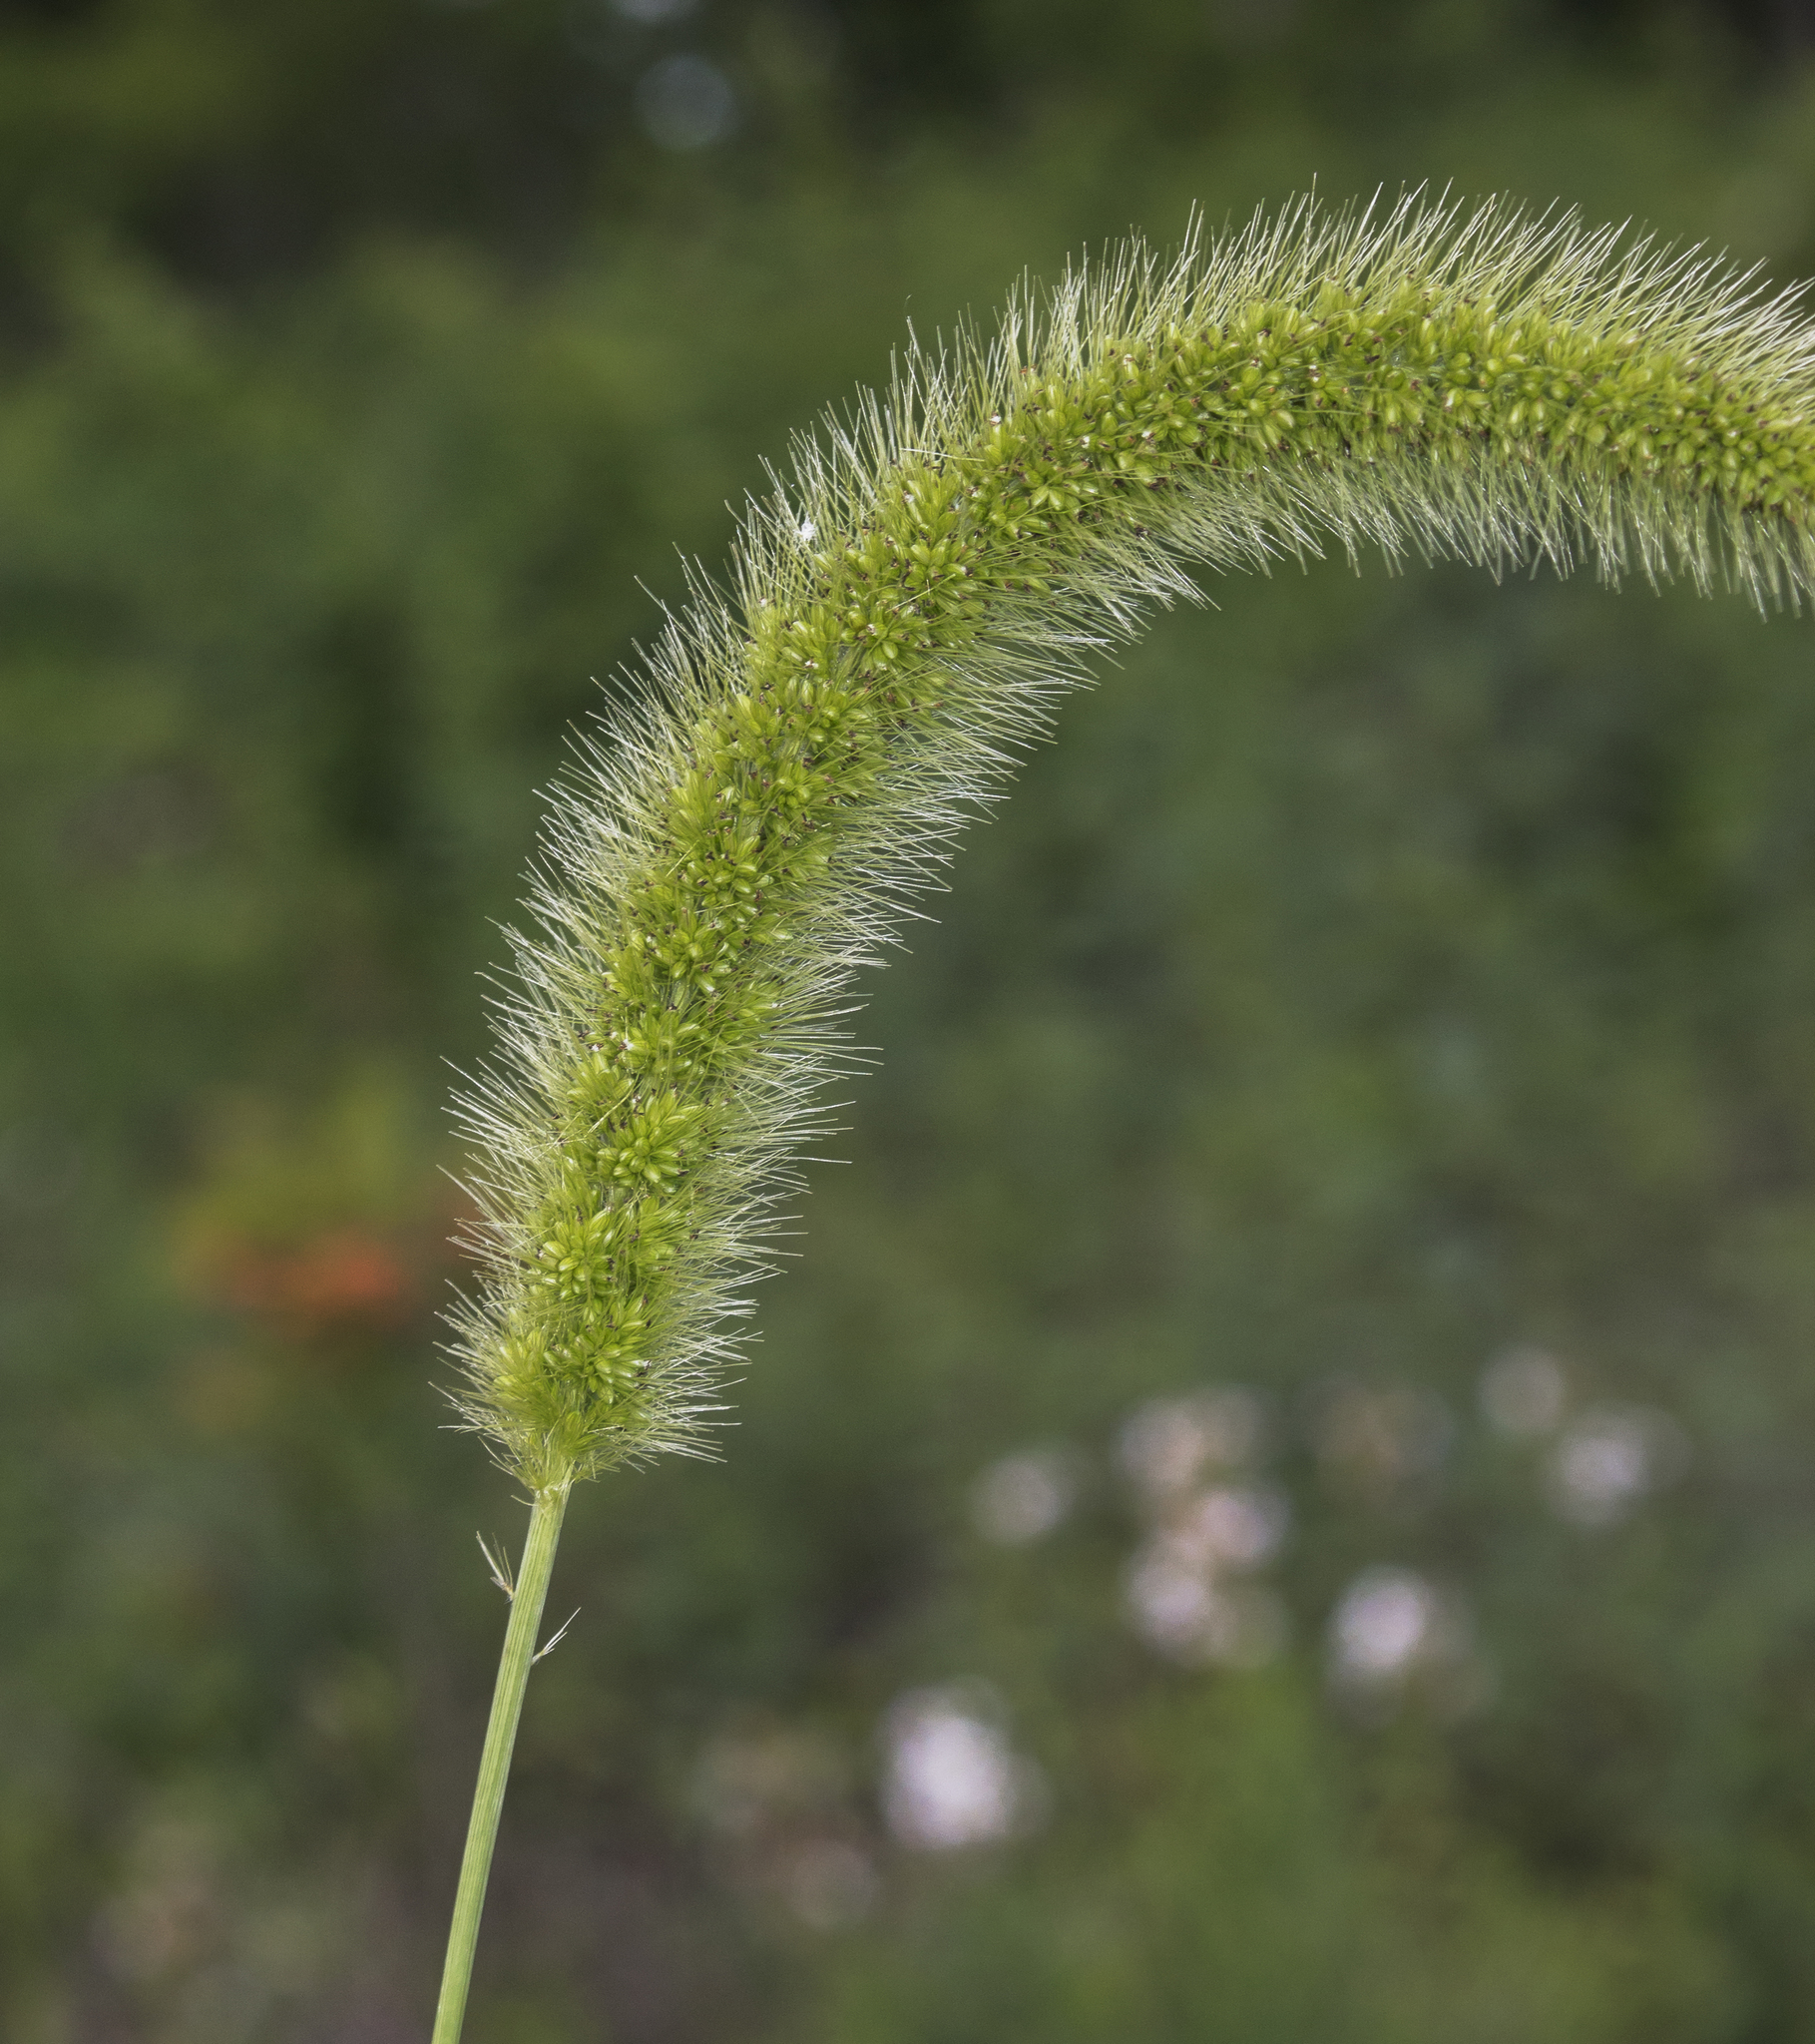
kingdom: Plantae
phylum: Tracheophyta
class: Liliopsida
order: Poales
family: Poaceae
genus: Setaria
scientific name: Setaria faberi
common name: Nodding bristle-grass
